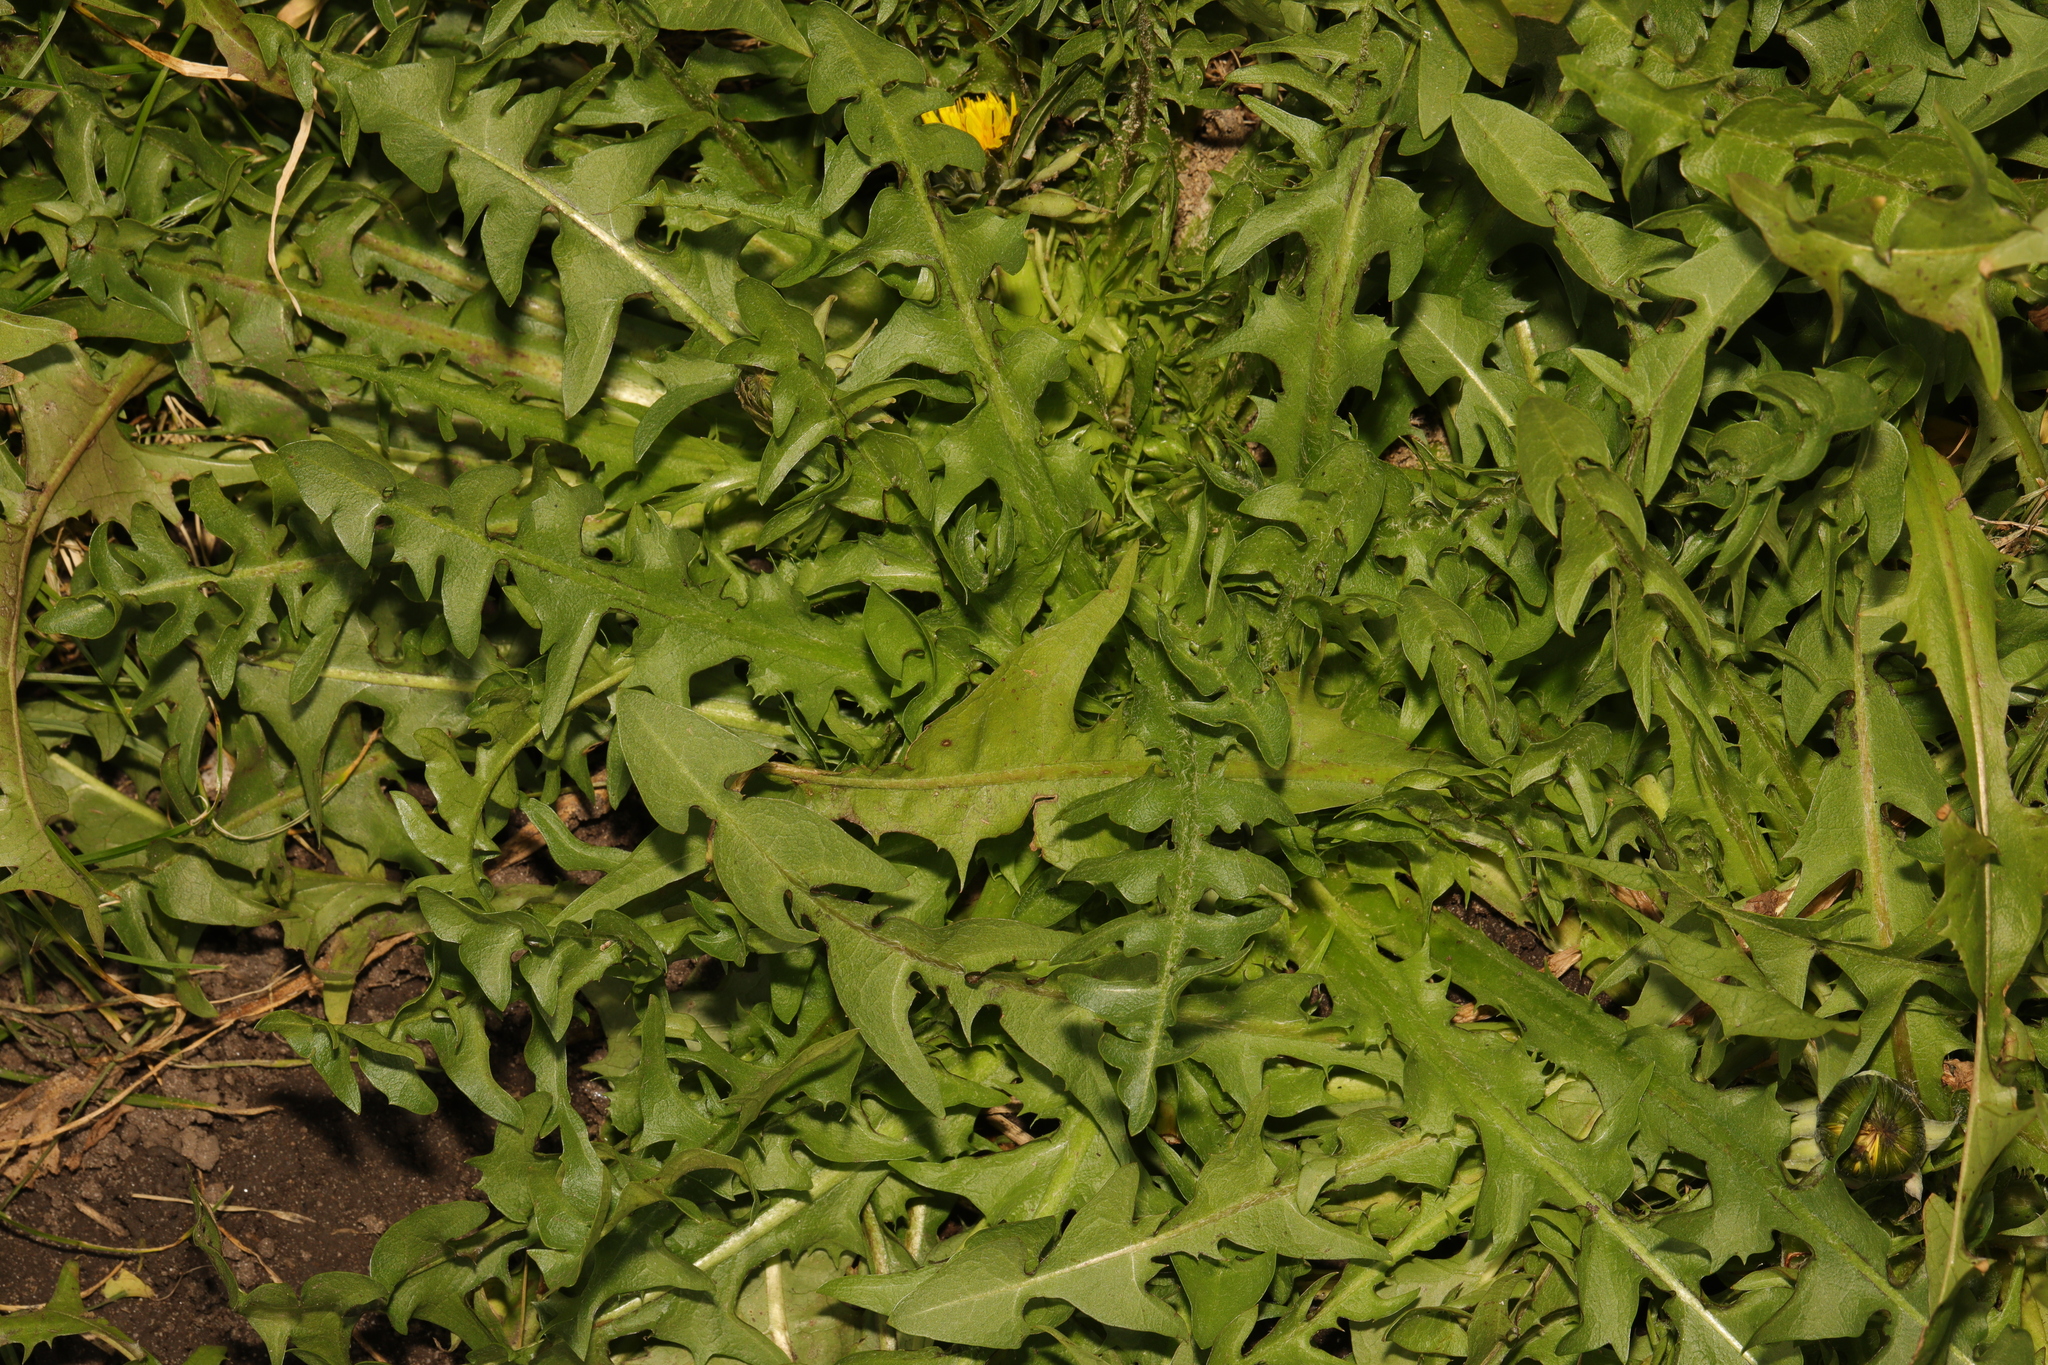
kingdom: Plantae
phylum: Tracheophyta
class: Magnoliopsida
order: Asterales
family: Asteraceae
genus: Taraxacum
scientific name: Taraxacum officinale
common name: Common dandelion
